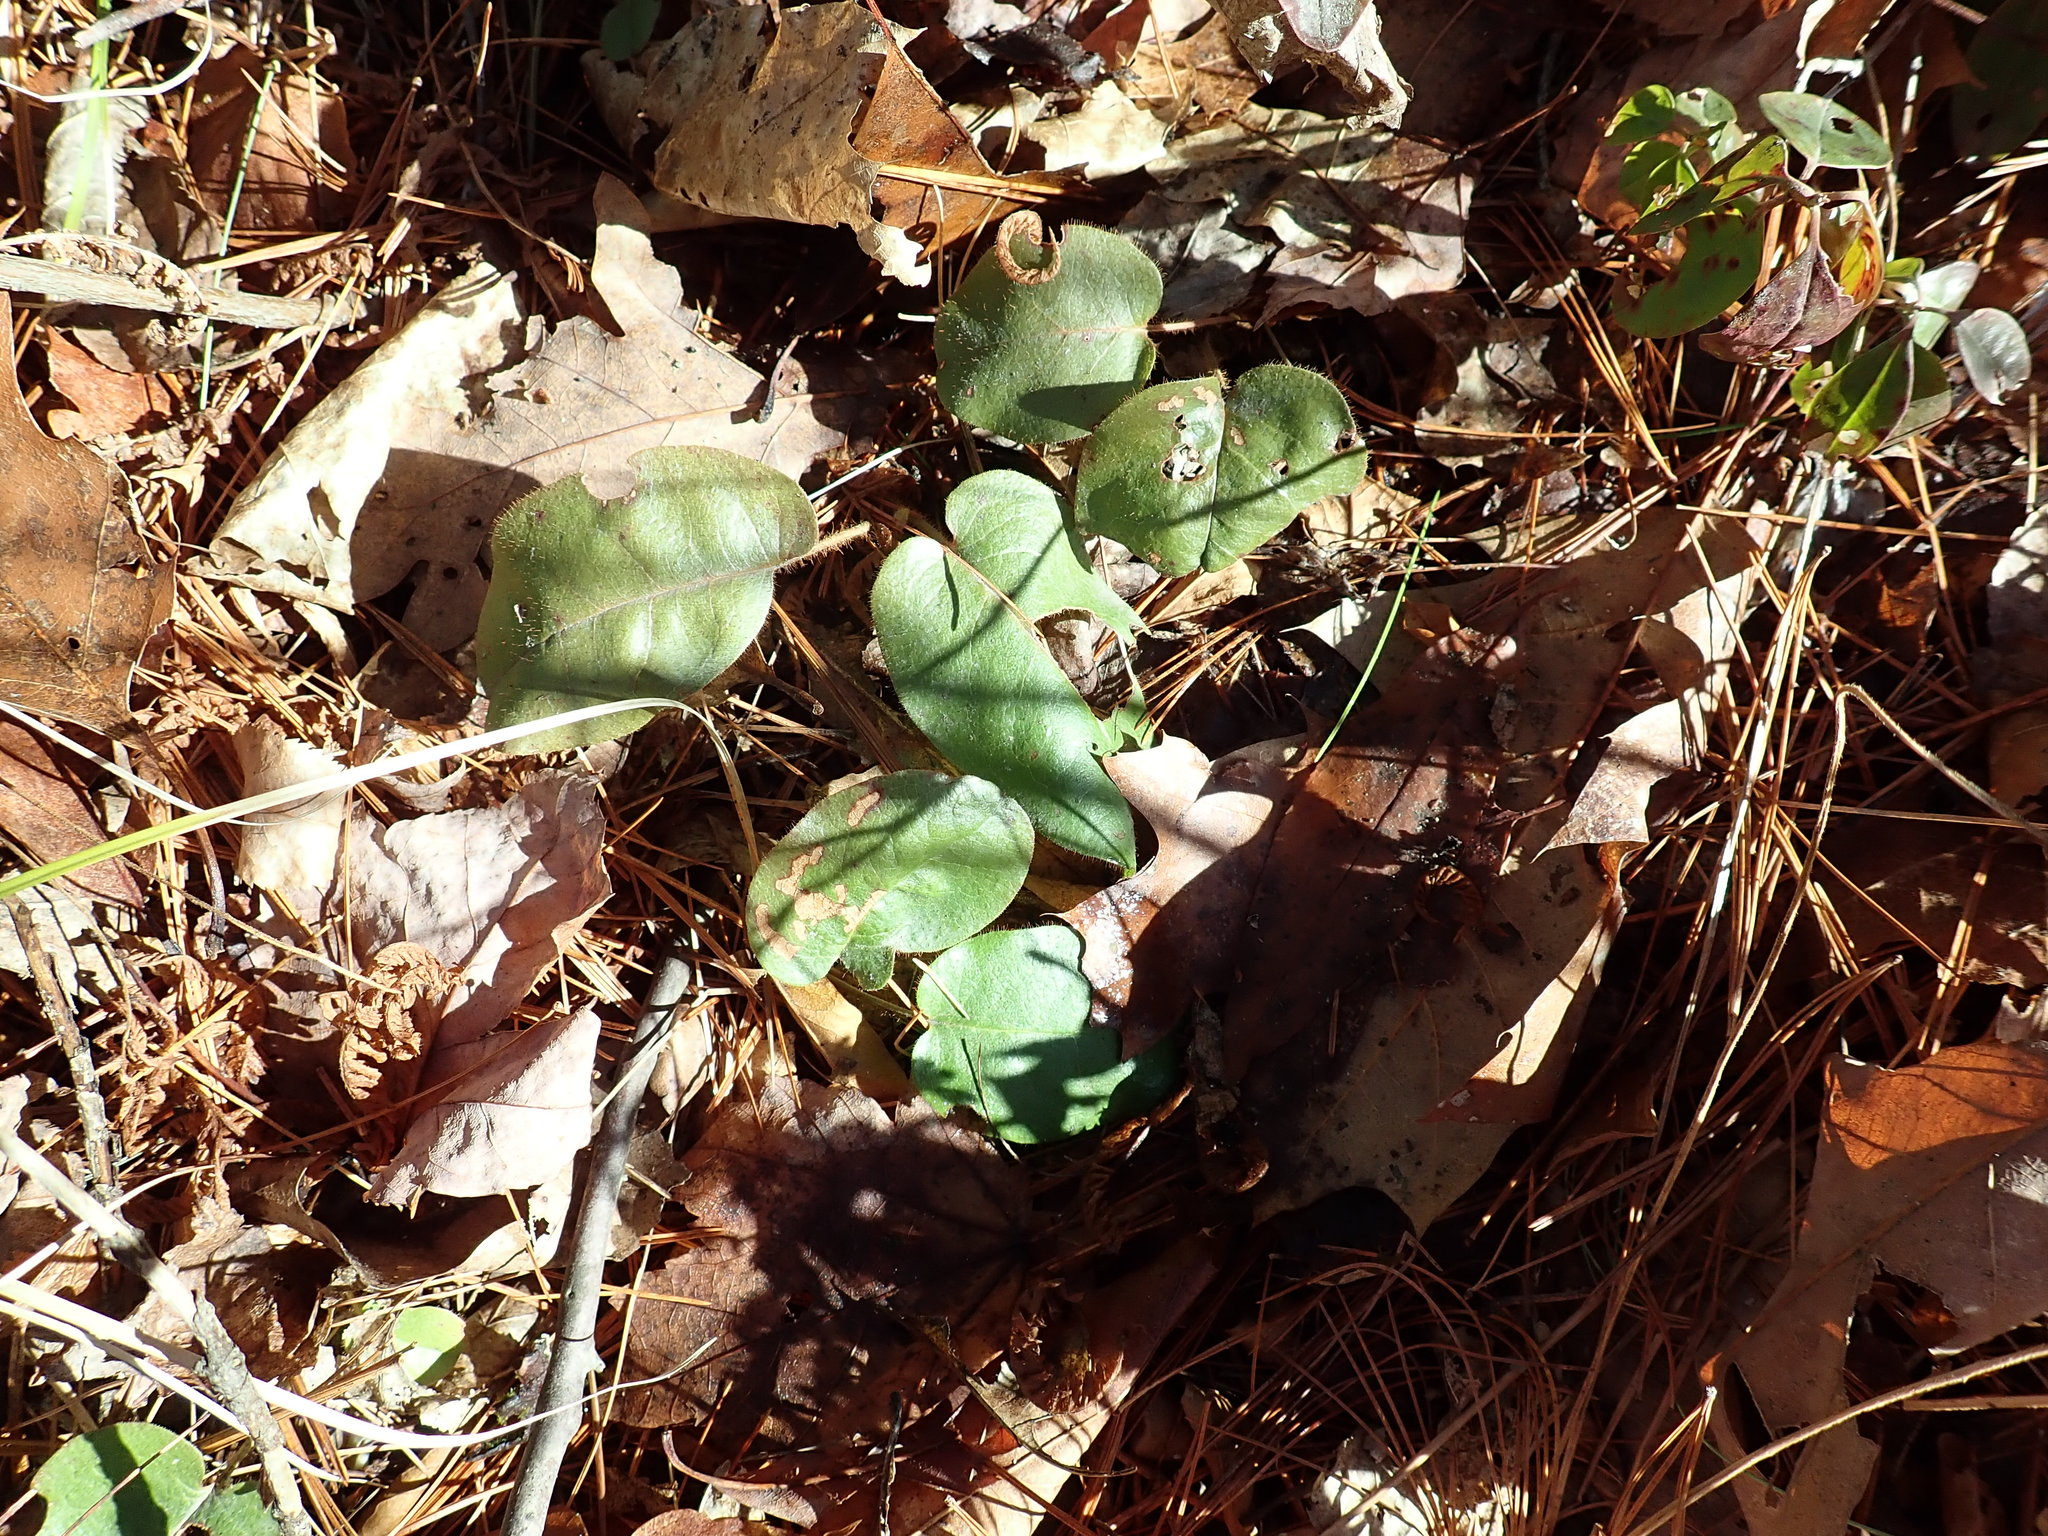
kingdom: Plantae
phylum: Tracheophyta
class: Magnoliopsida
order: Ericales
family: Ericaceae
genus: Epigaea
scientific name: Epigaea repens
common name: Gravelroot
